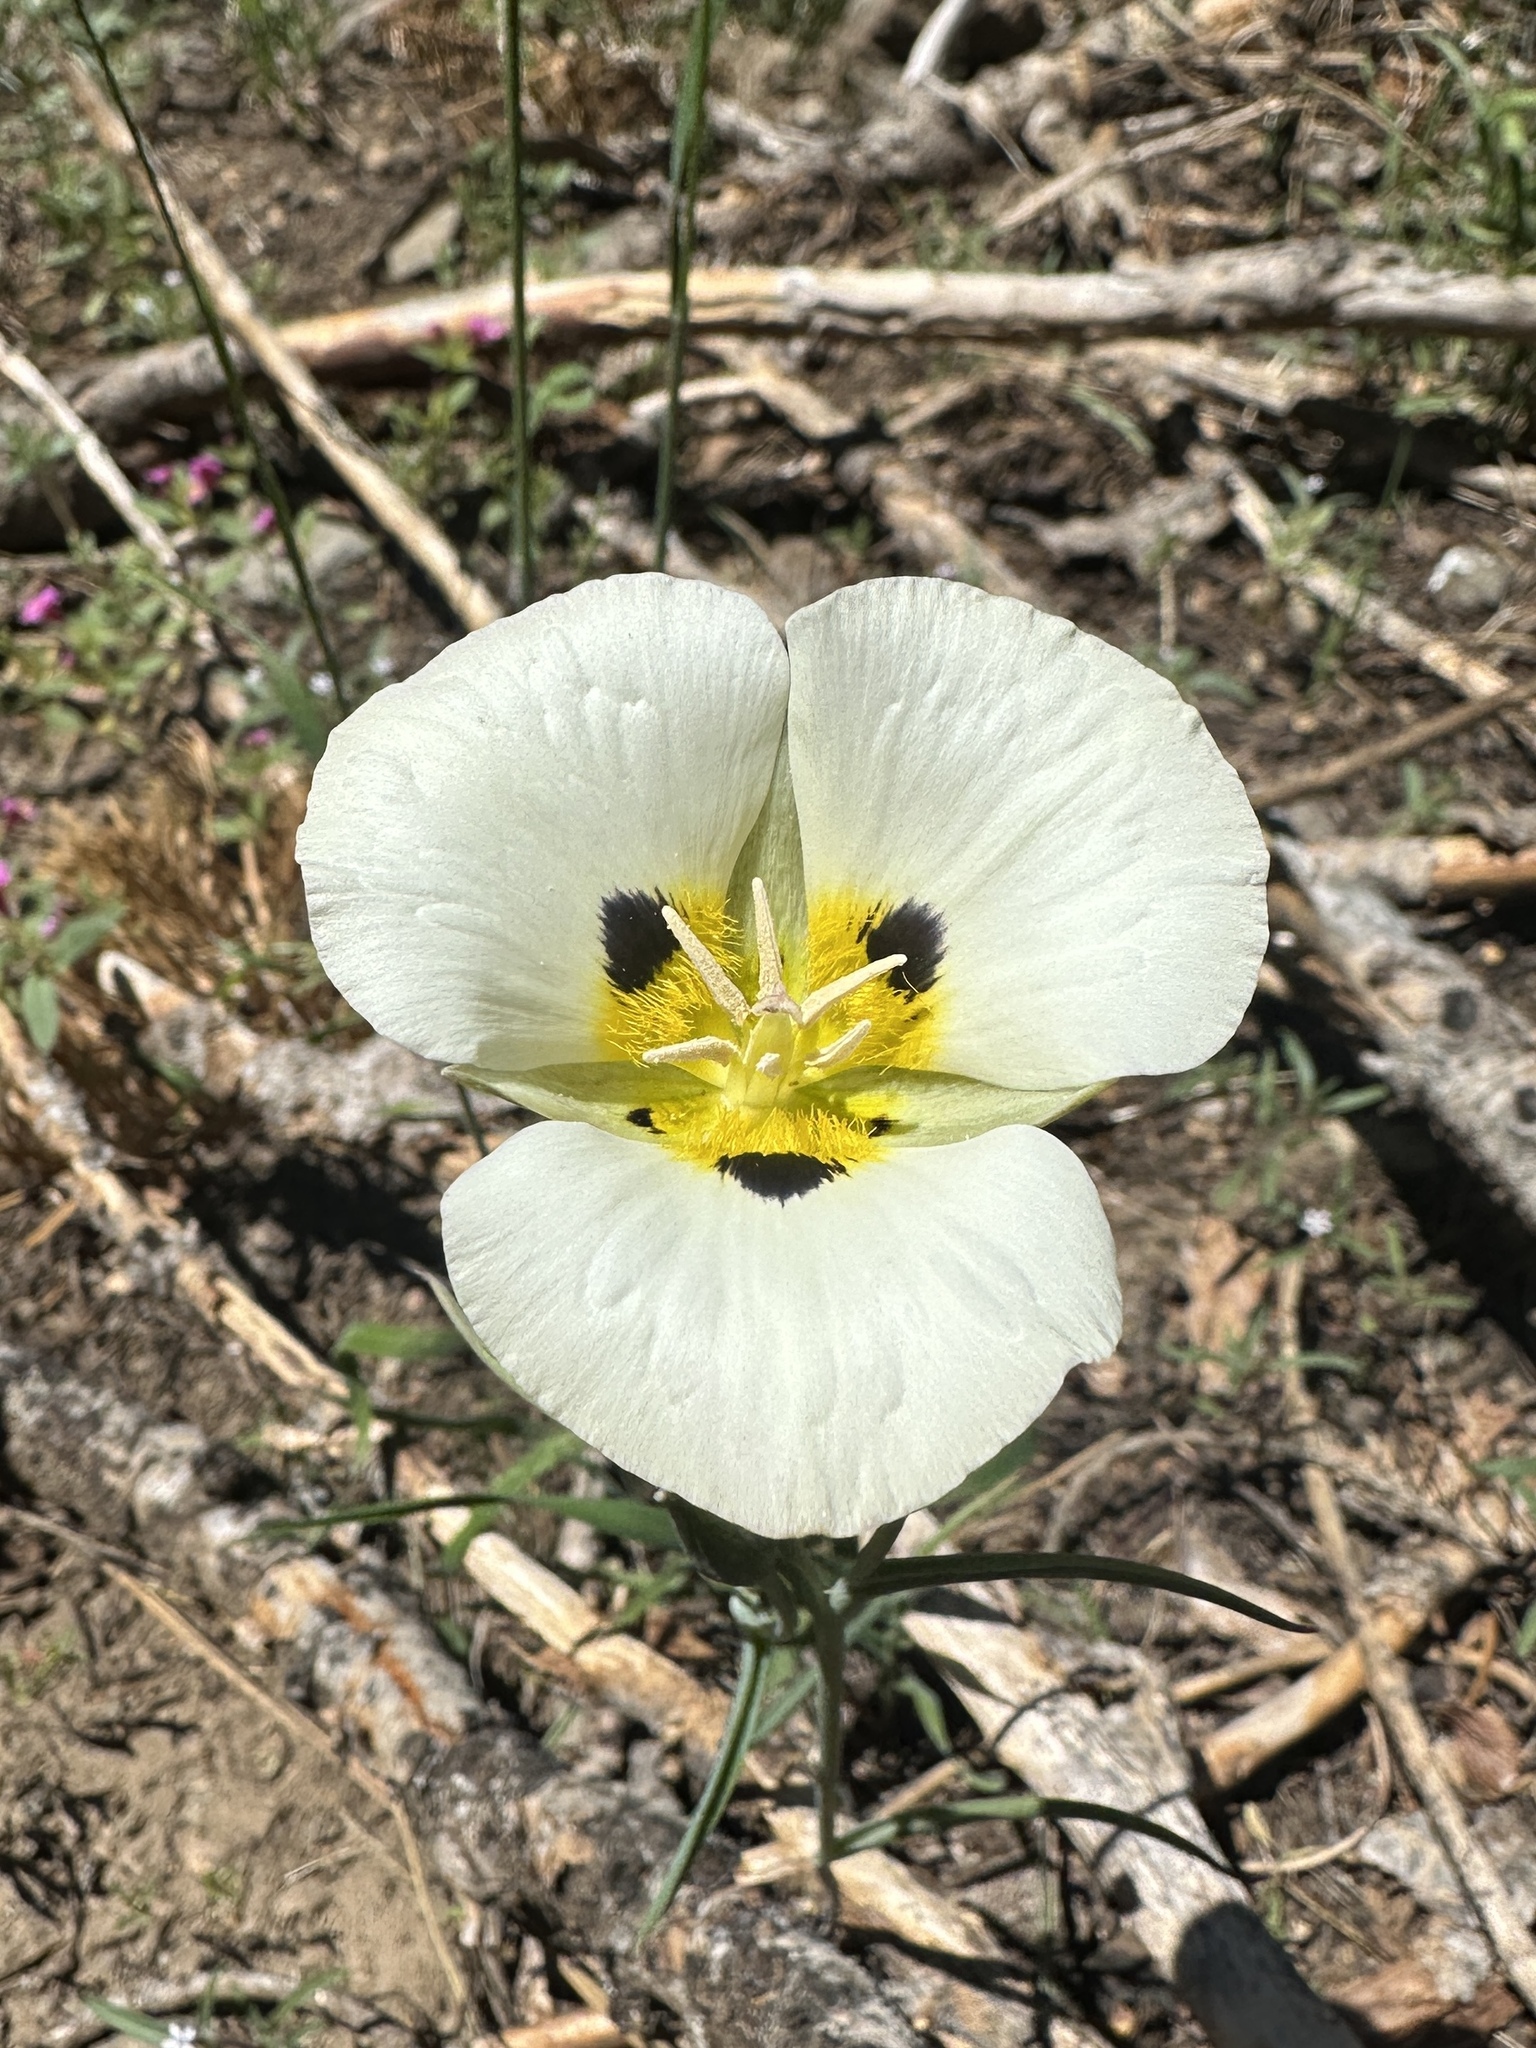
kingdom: Plantae
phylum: Tracheophyta
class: Liliopsida
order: Liliales
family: Liliaceae
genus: Calochortus
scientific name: Calochortus leichtlinii
